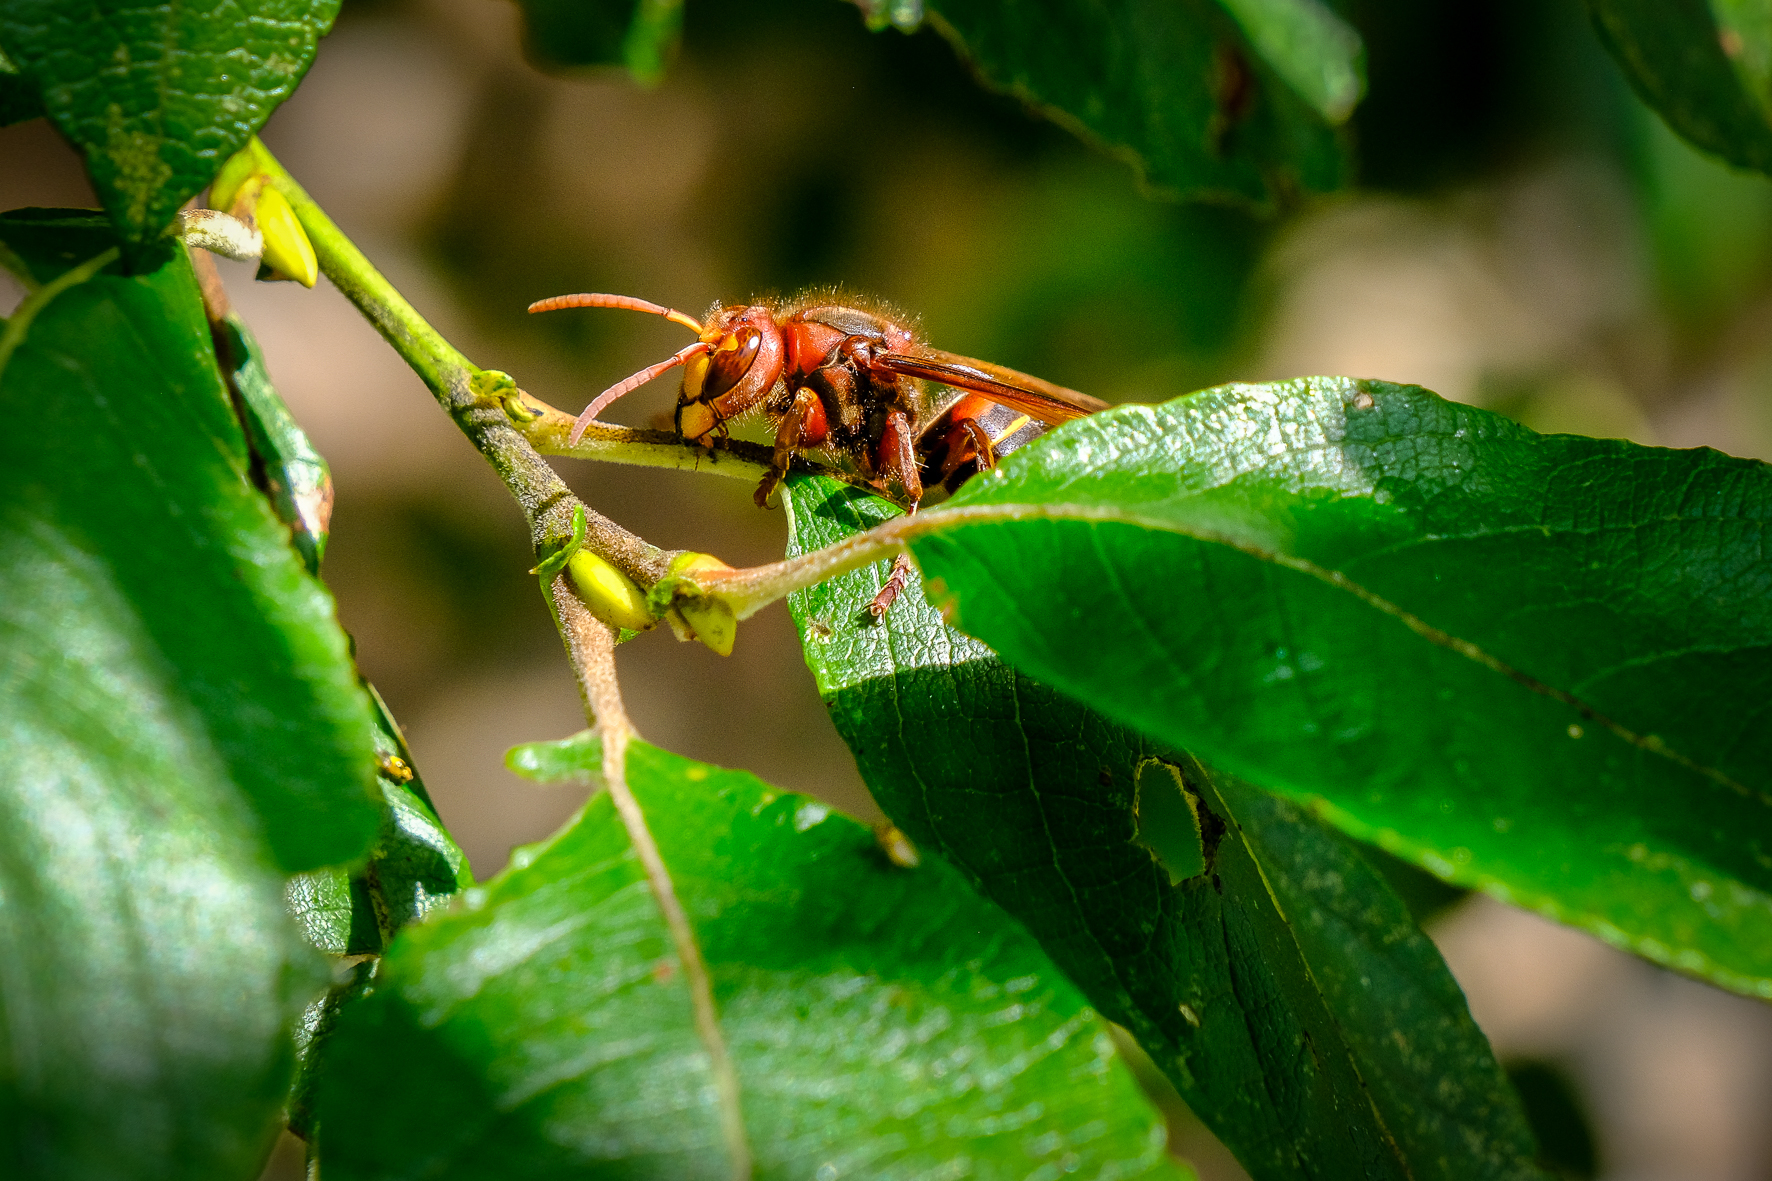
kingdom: Animalia
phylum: Arthropoda
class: Insecta
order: Hymenoptera
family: Vespidae
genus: Vespa
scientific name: Vespa crabro
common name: Hornet
